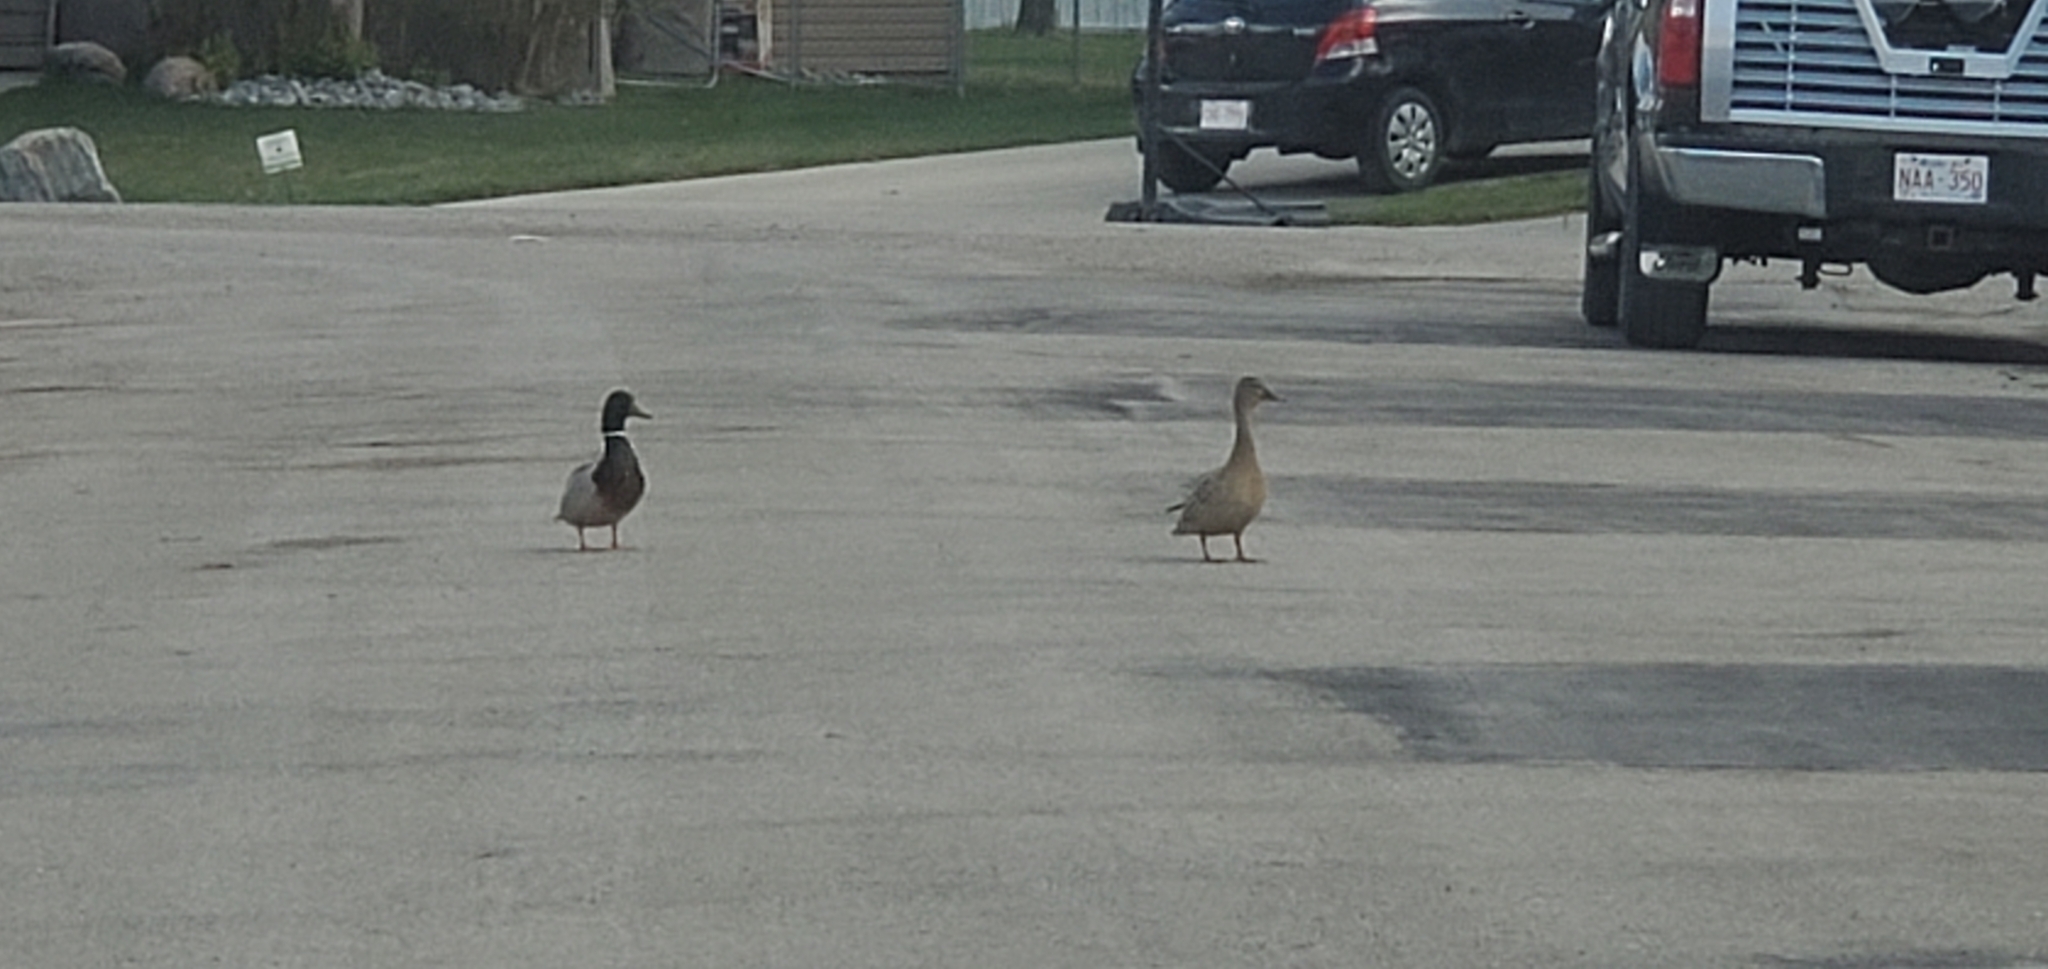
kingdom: Animalia
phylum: Chordata
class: Aves
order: Anseriformes
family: Anatidae
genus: Anas
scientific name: Anas platyrhynchos
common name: Mallard
